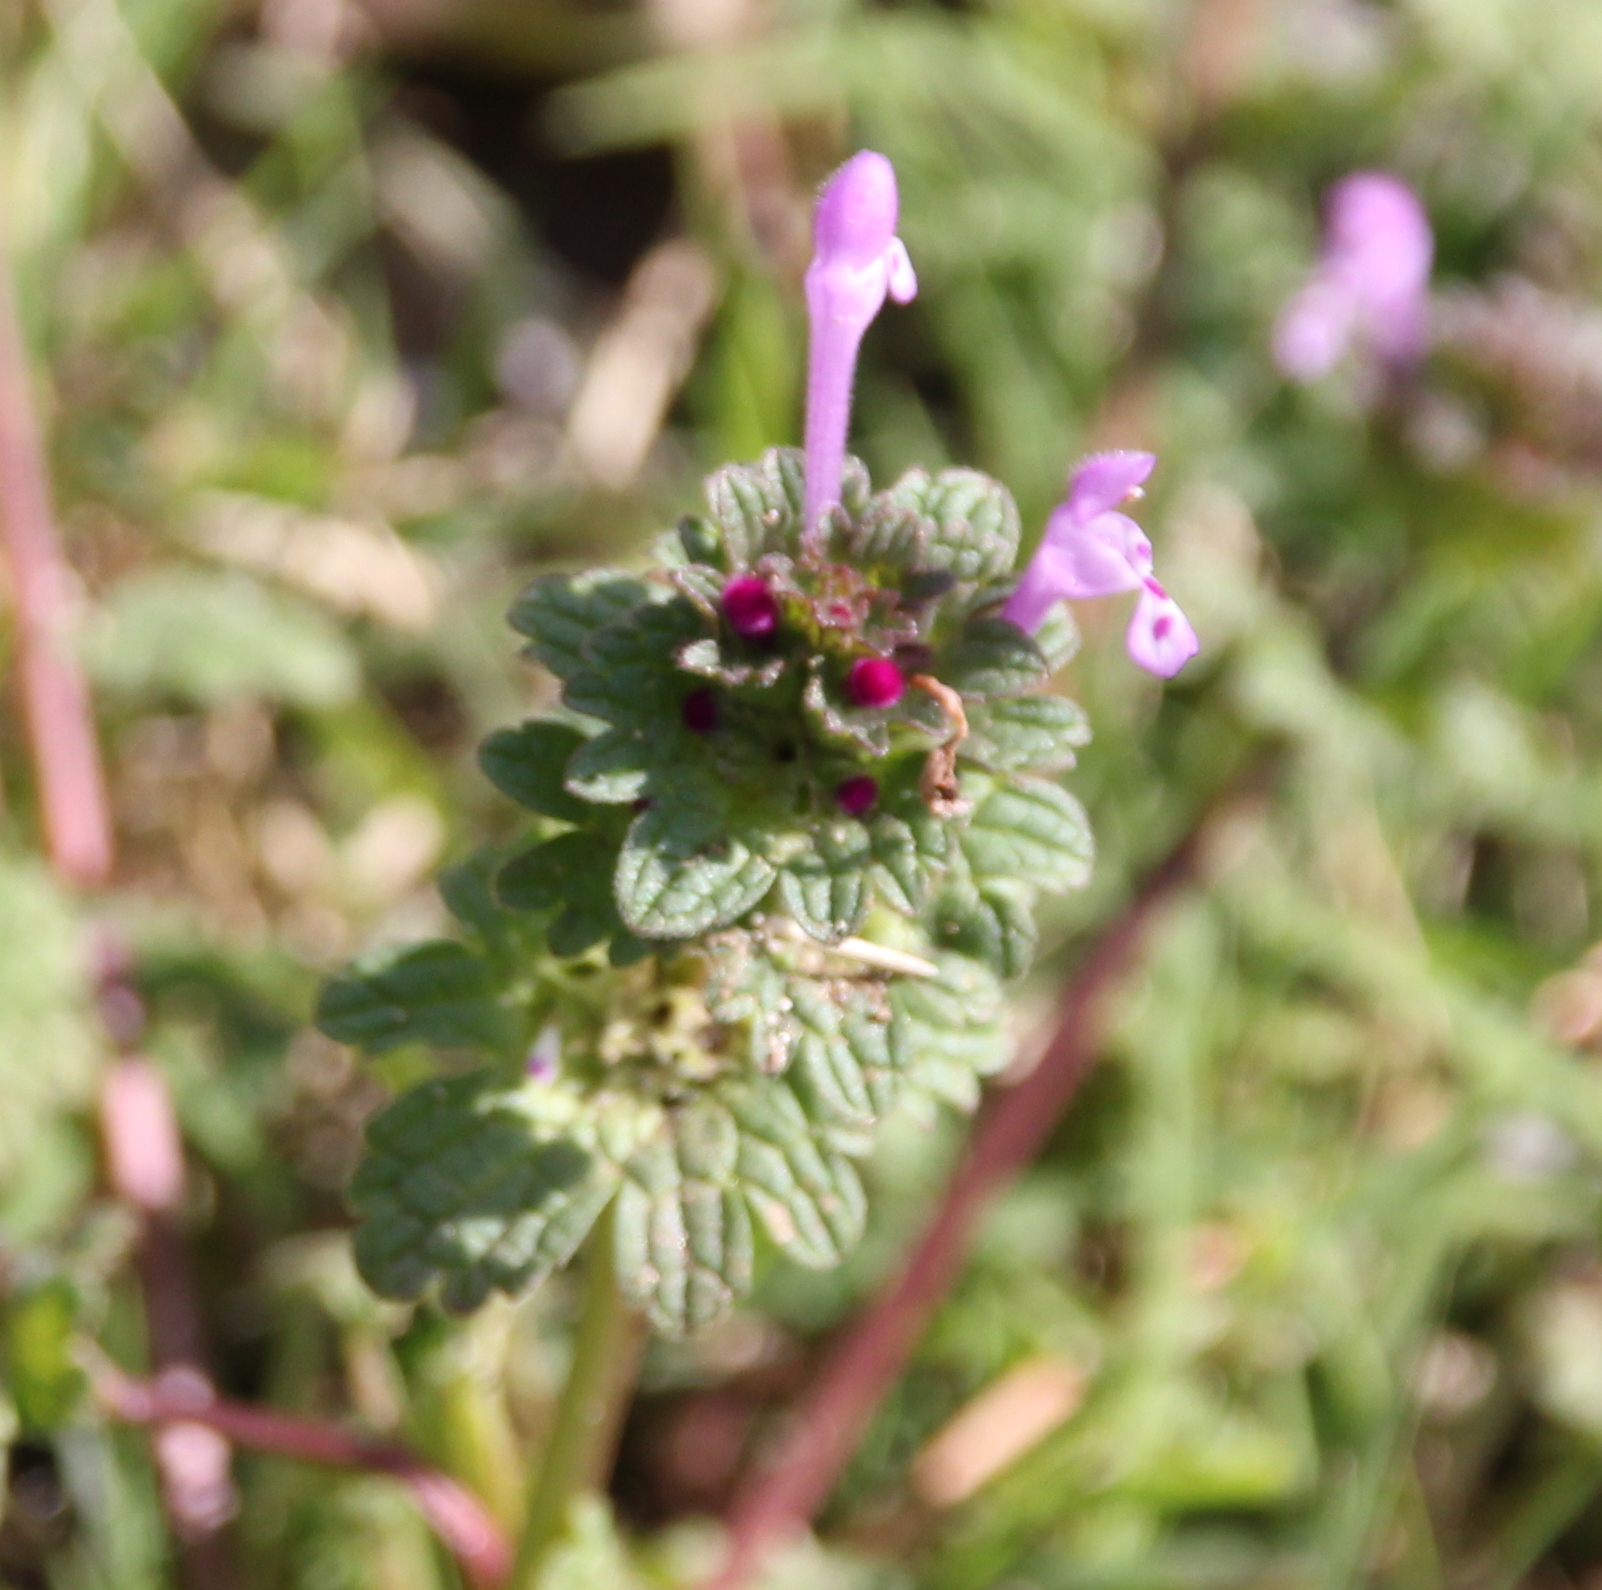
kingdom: Plantae
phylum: Tracheophyta
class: Magnoliopsida
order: Lamiales
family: Lamiaceae
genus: Lamium
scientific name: Lamium amplexicaule
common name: Henbit dead-nettle
